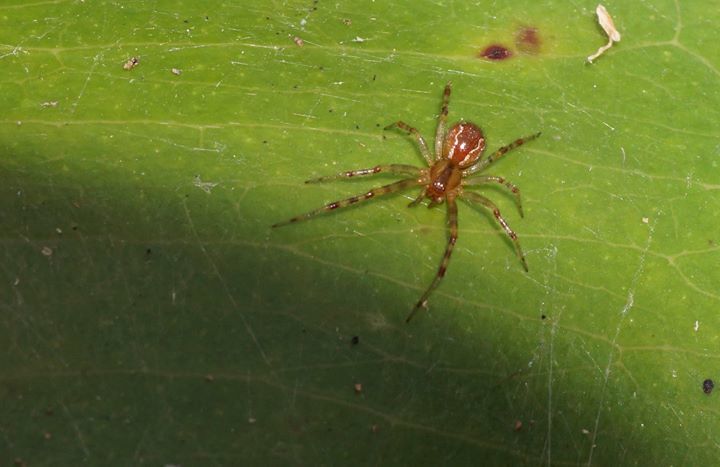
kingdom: Animalia
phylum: Arthropoda
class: Arachnida
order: Araneae
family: Theridiidae
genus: Anelosimus
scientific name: Anelosimus studiosus
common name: Cobweb spiders
